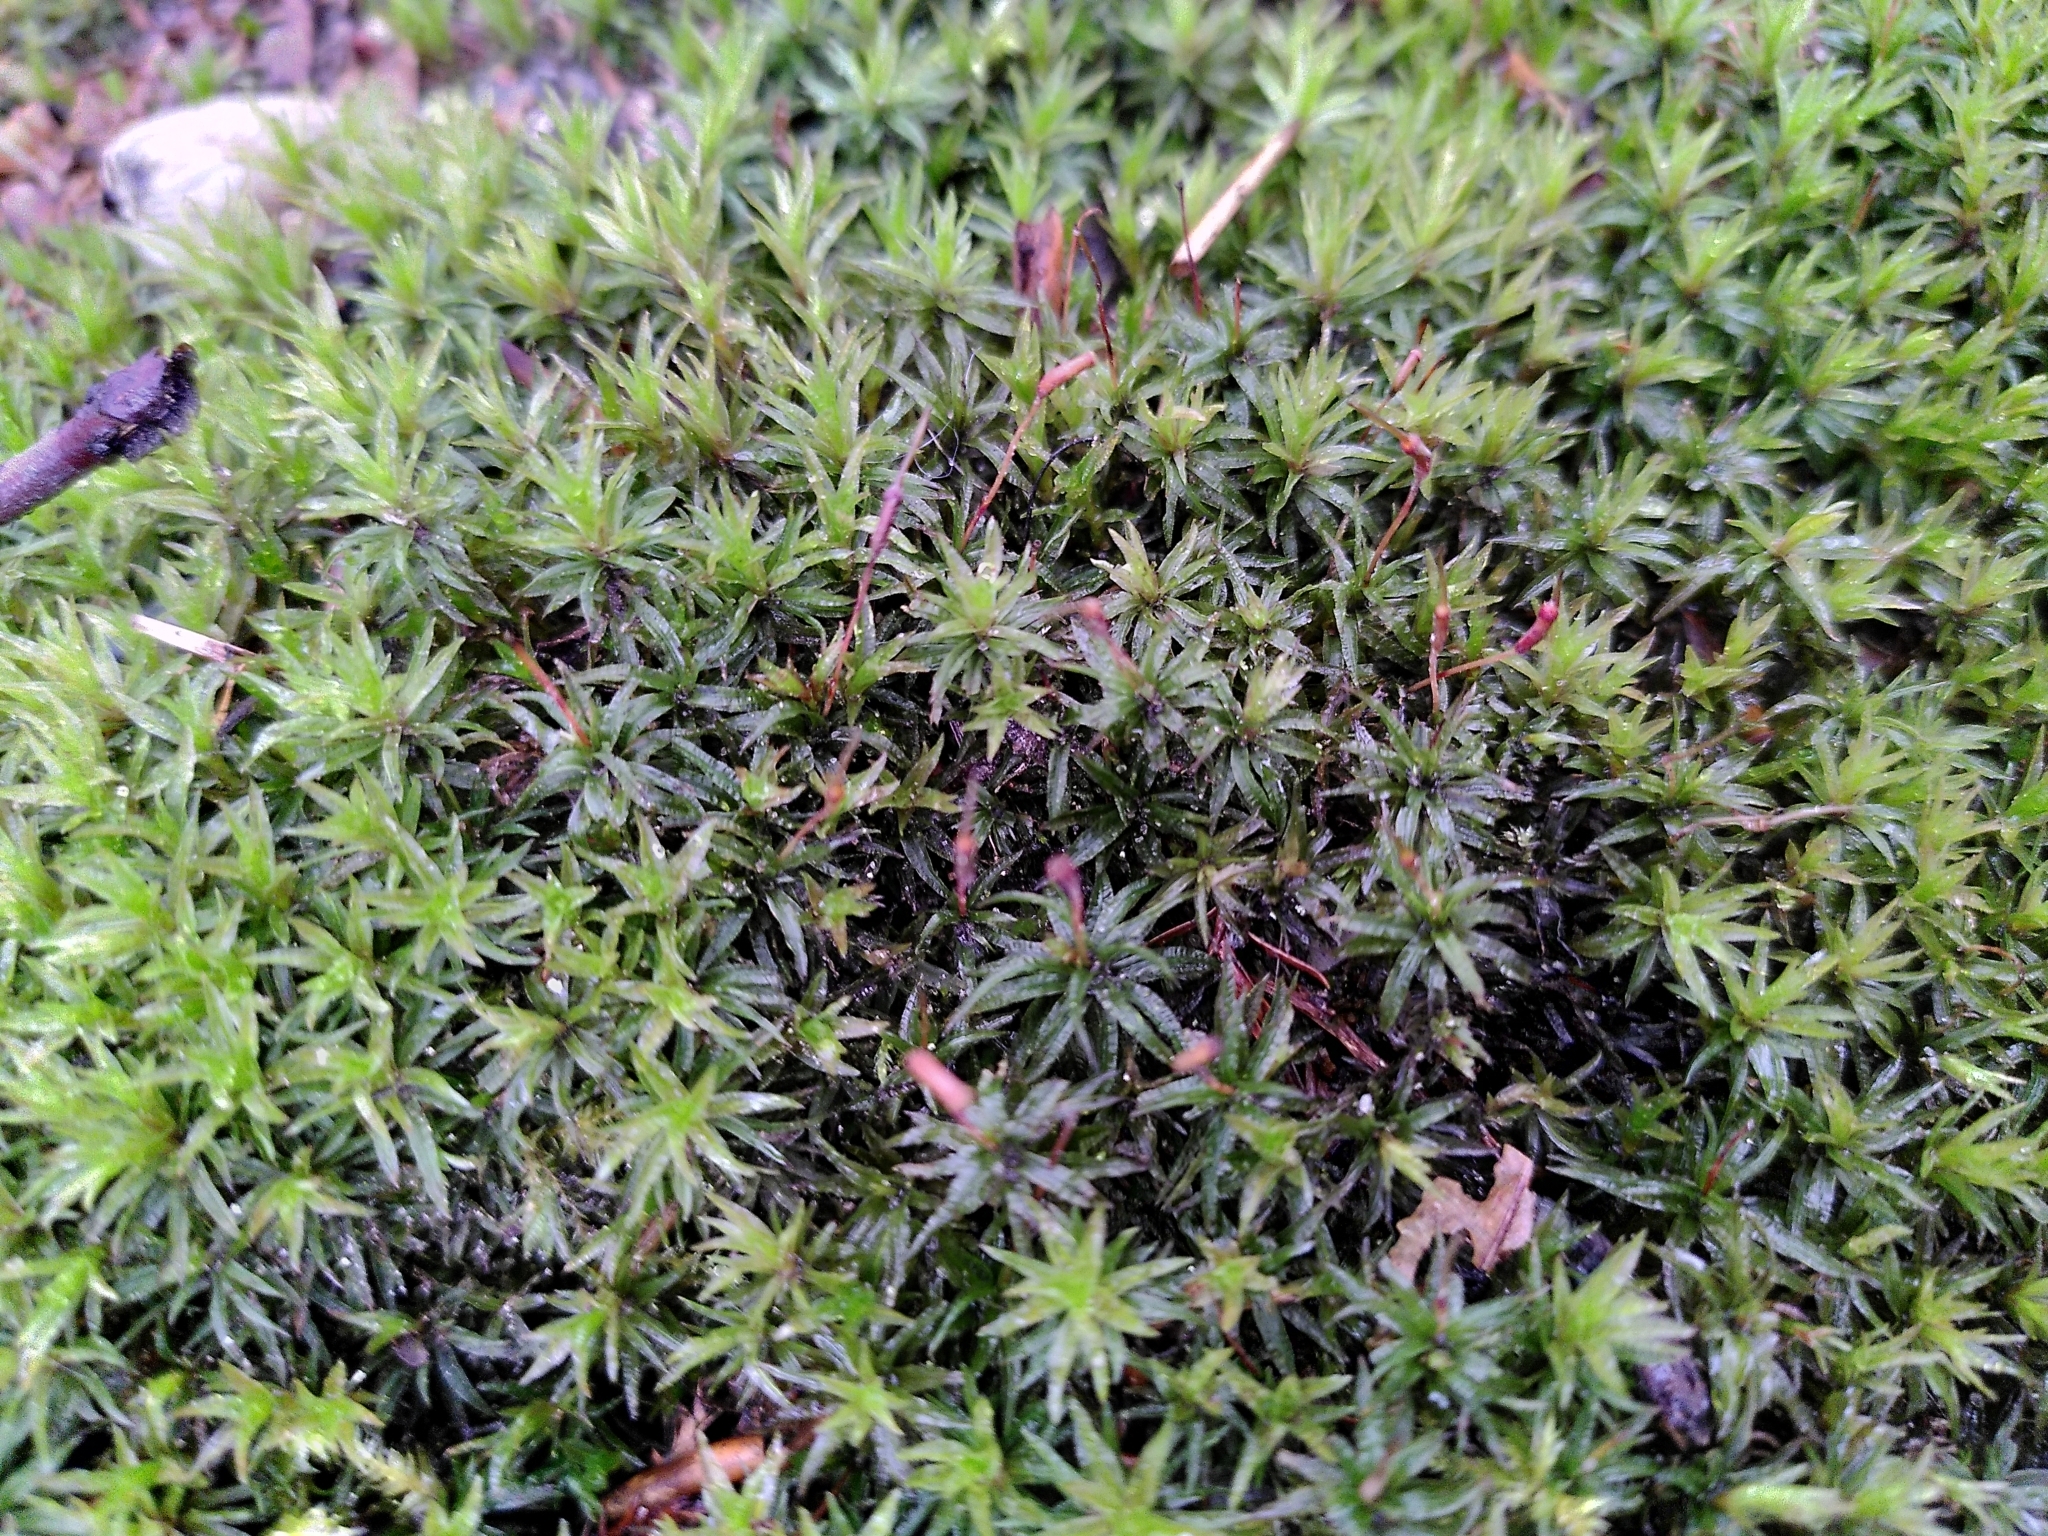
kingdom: Plantae
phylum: Bryophyta
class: Polytrichopsida
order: Polytrichales
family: Polytrichaceae
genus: Atrichum
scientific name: Atrichum undulatum
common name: Common smoothcap
